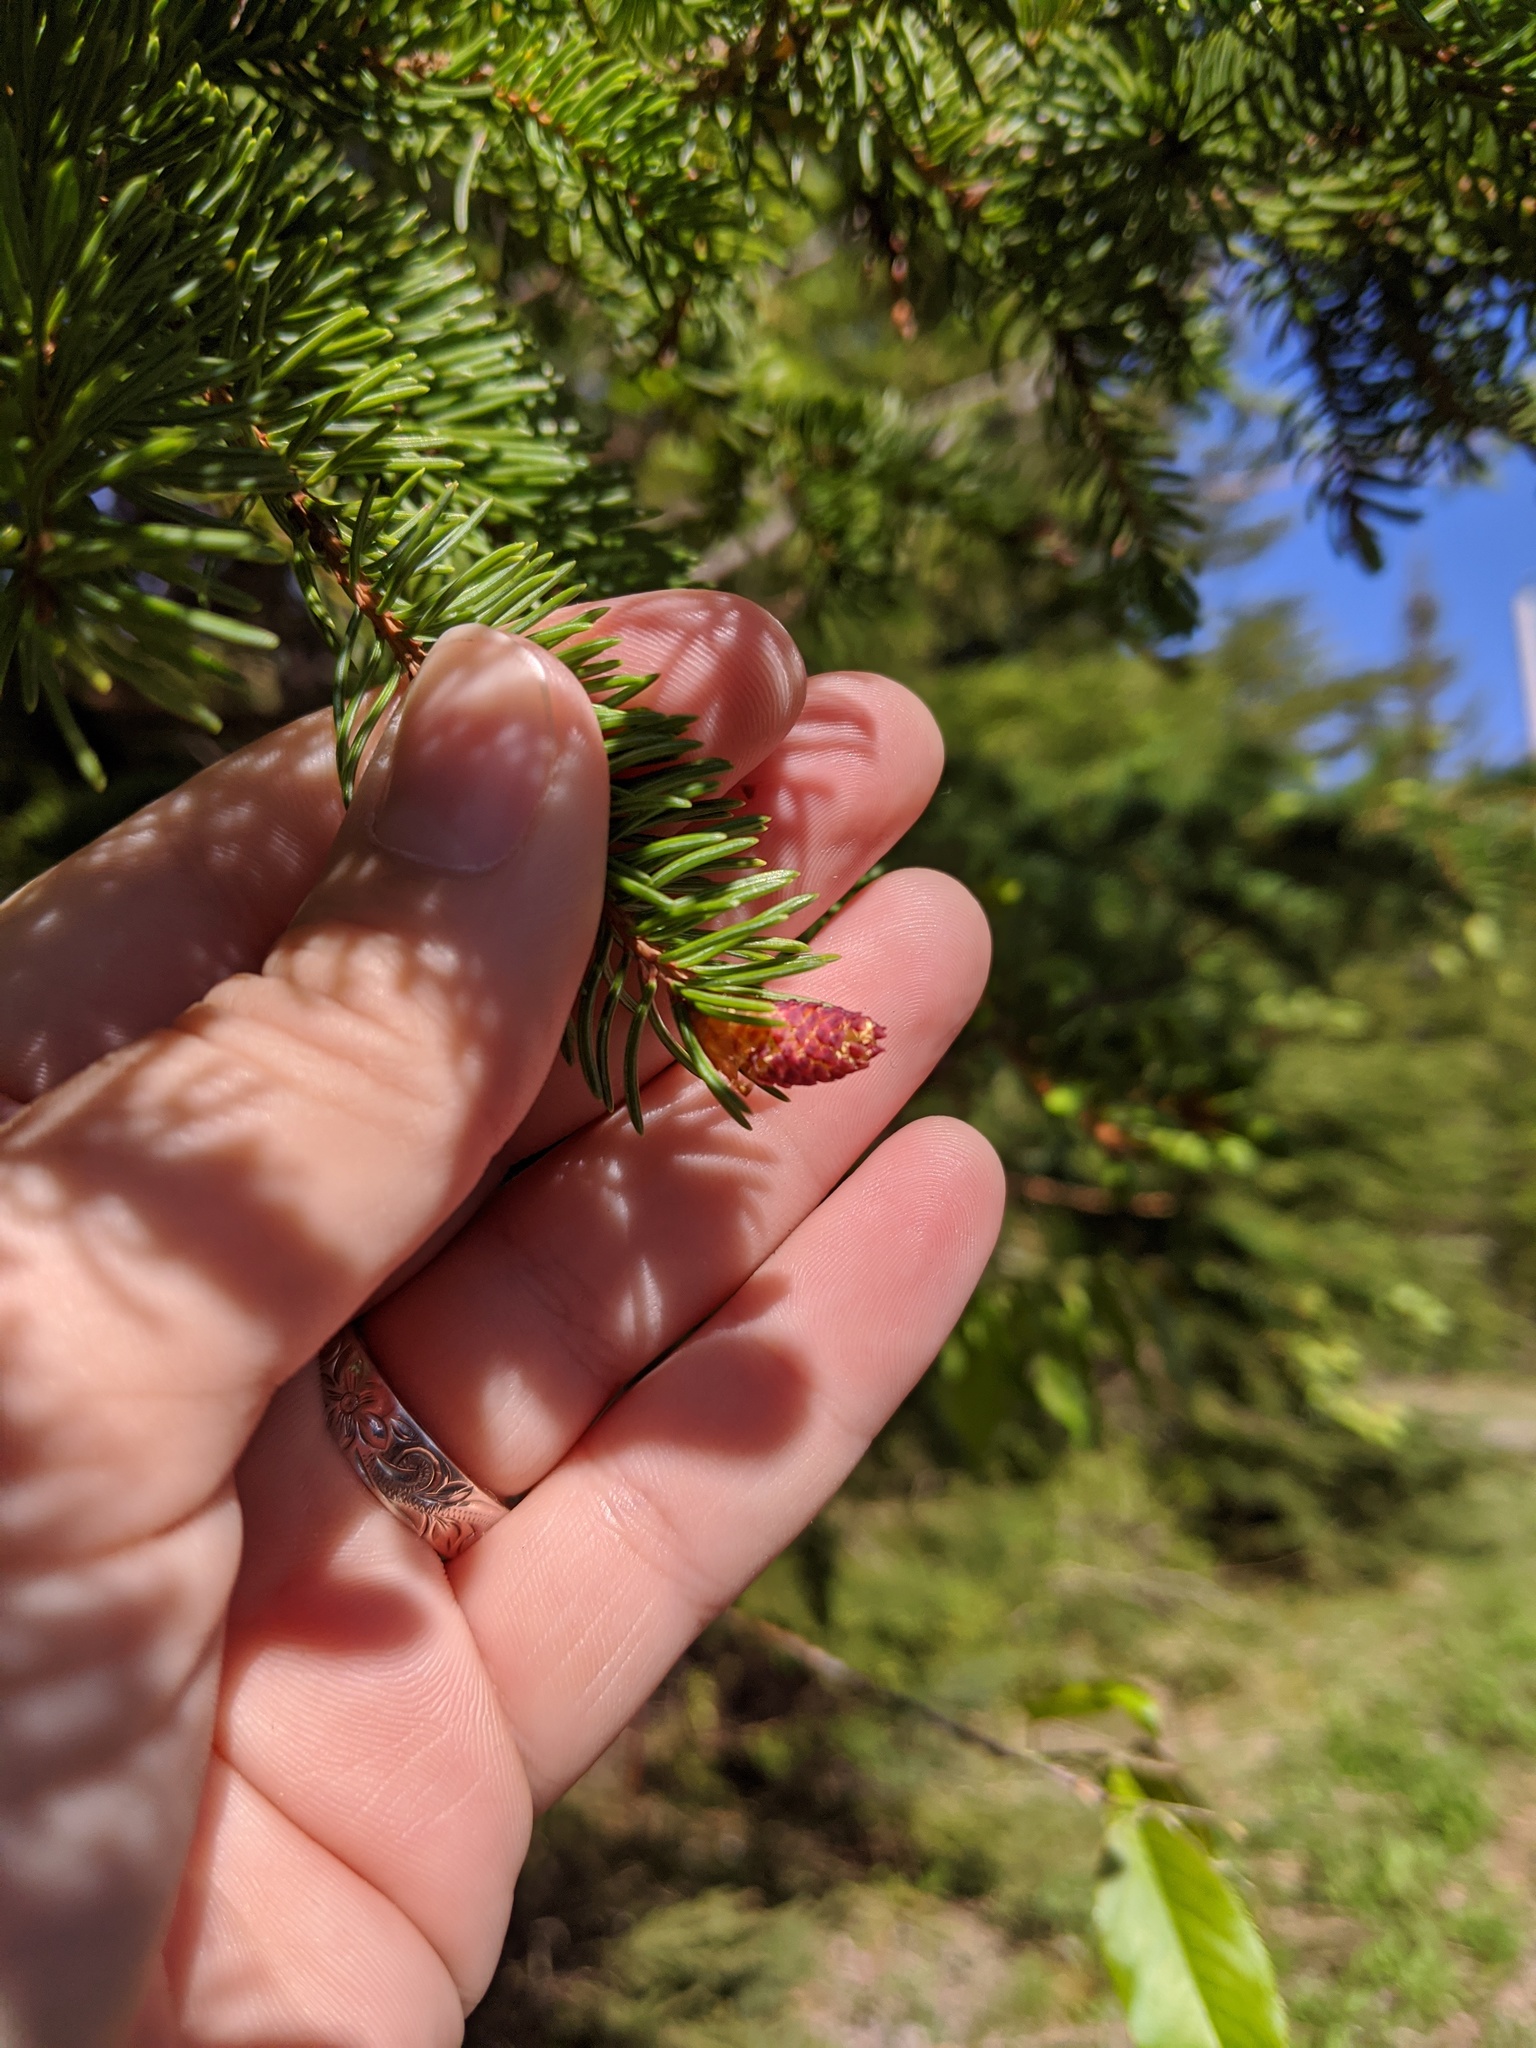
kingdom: Plantae
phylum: Tracheophyta
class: Pinopsida
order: Pinales
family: Pinaceae
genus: Picea
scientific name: Picea glauca
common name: White spruce
